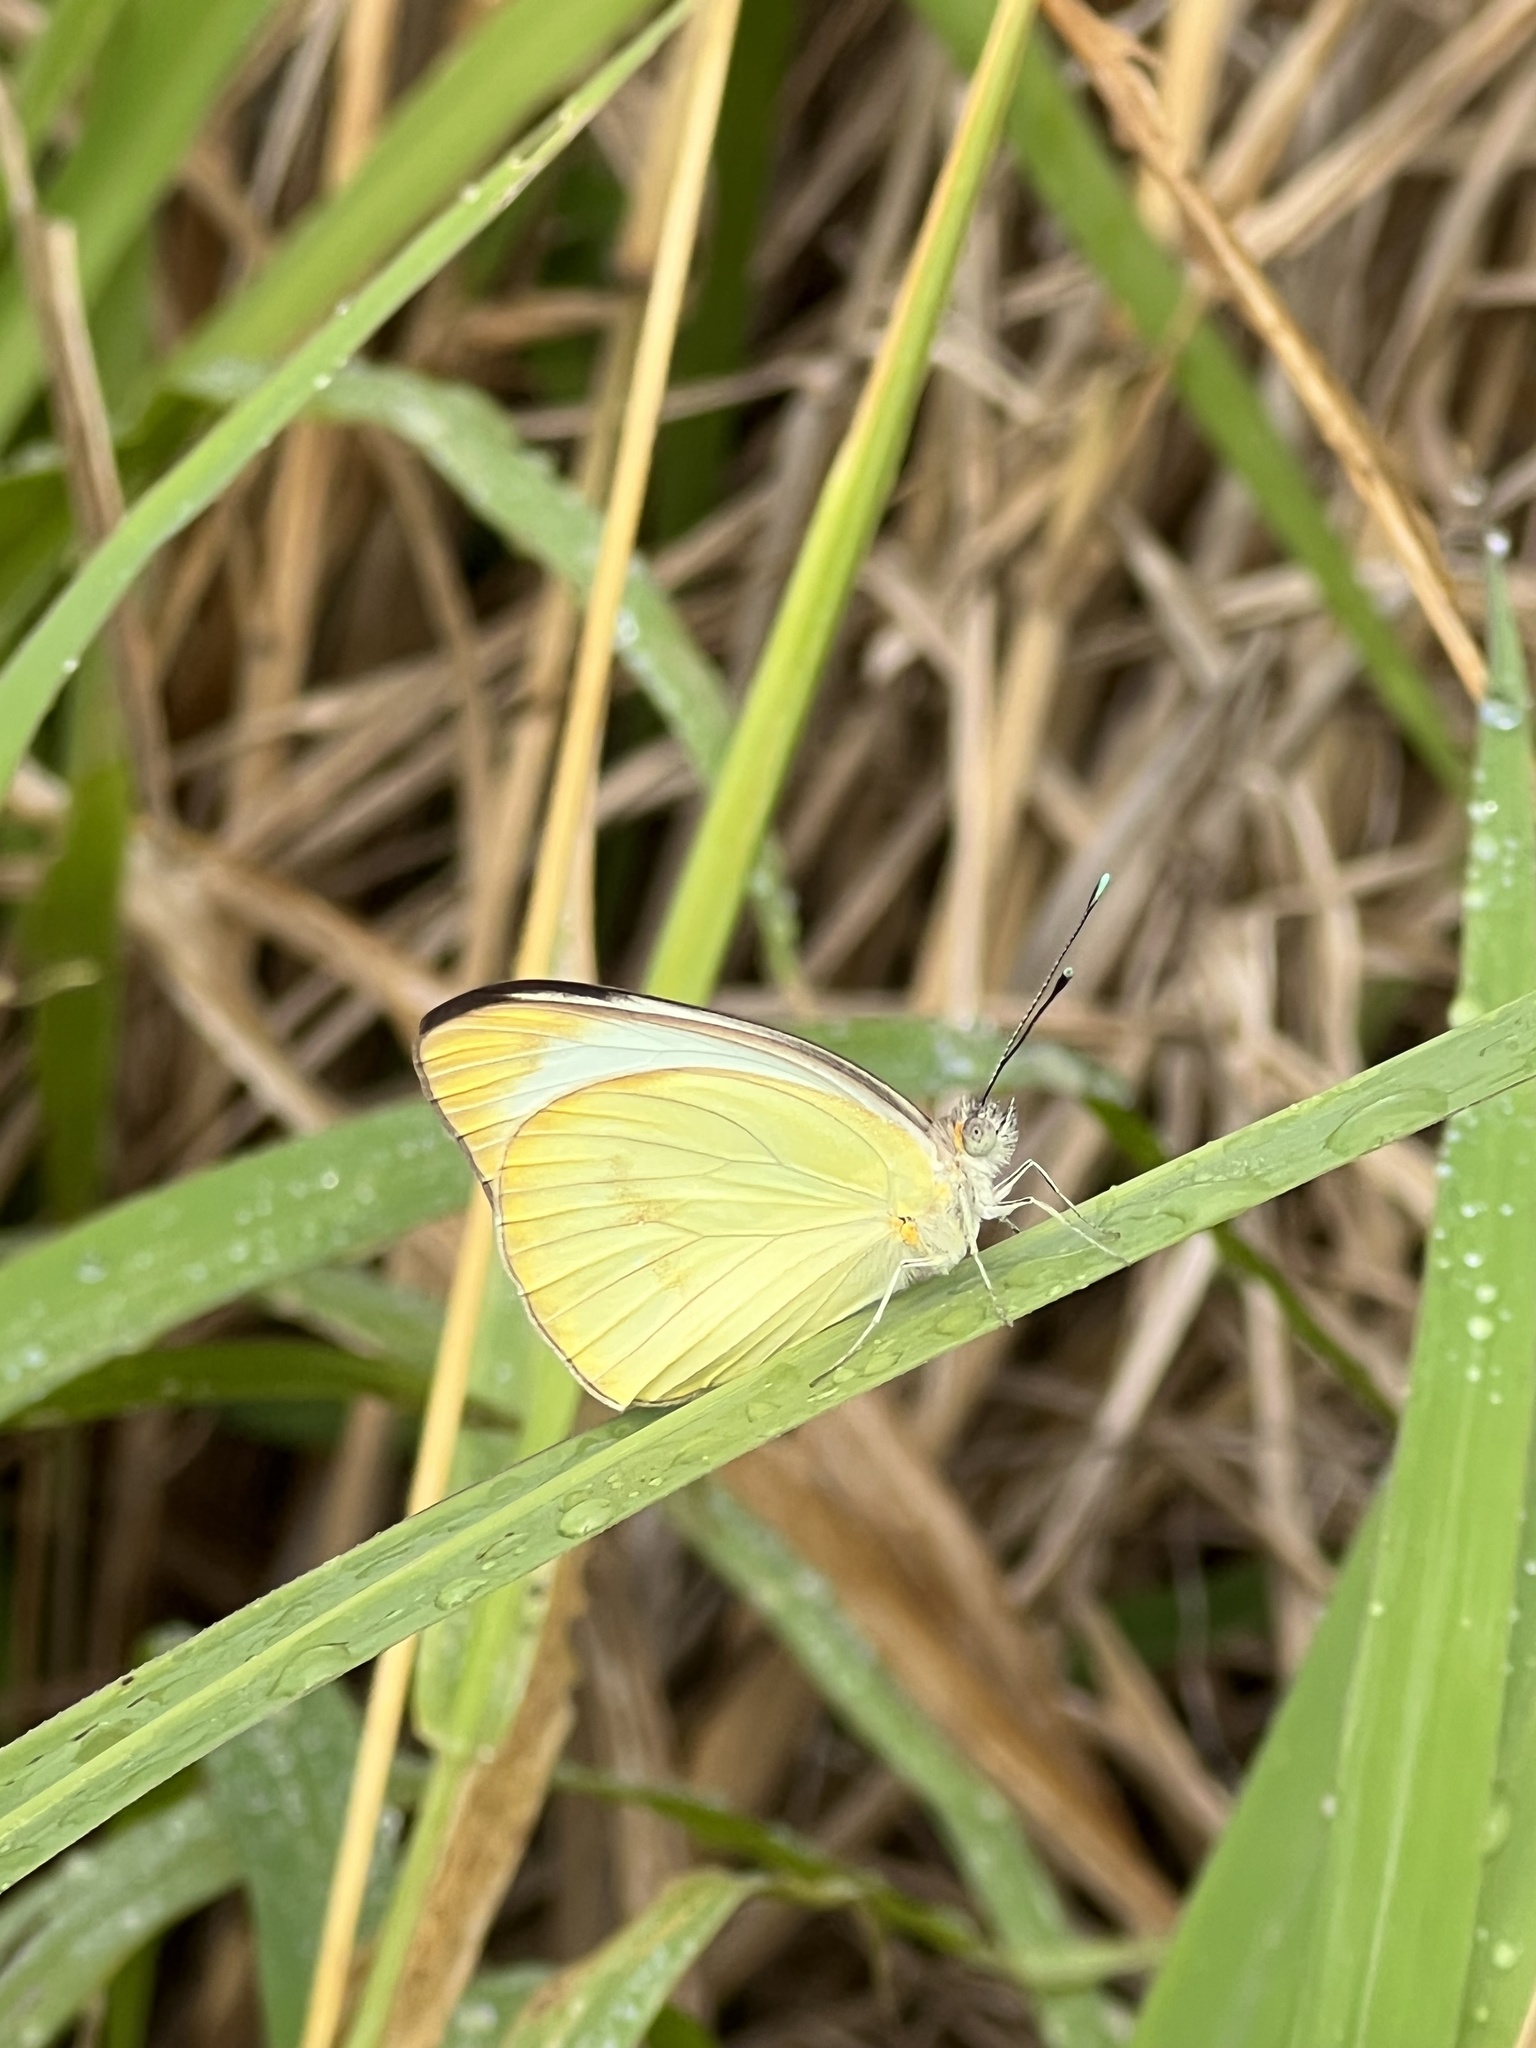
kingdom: Animalia
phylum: Arthropoda
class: Insecta
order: Lepidoptera
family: Pieridae
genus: Ascia
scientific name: Ascia monuste
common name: Great southern white
